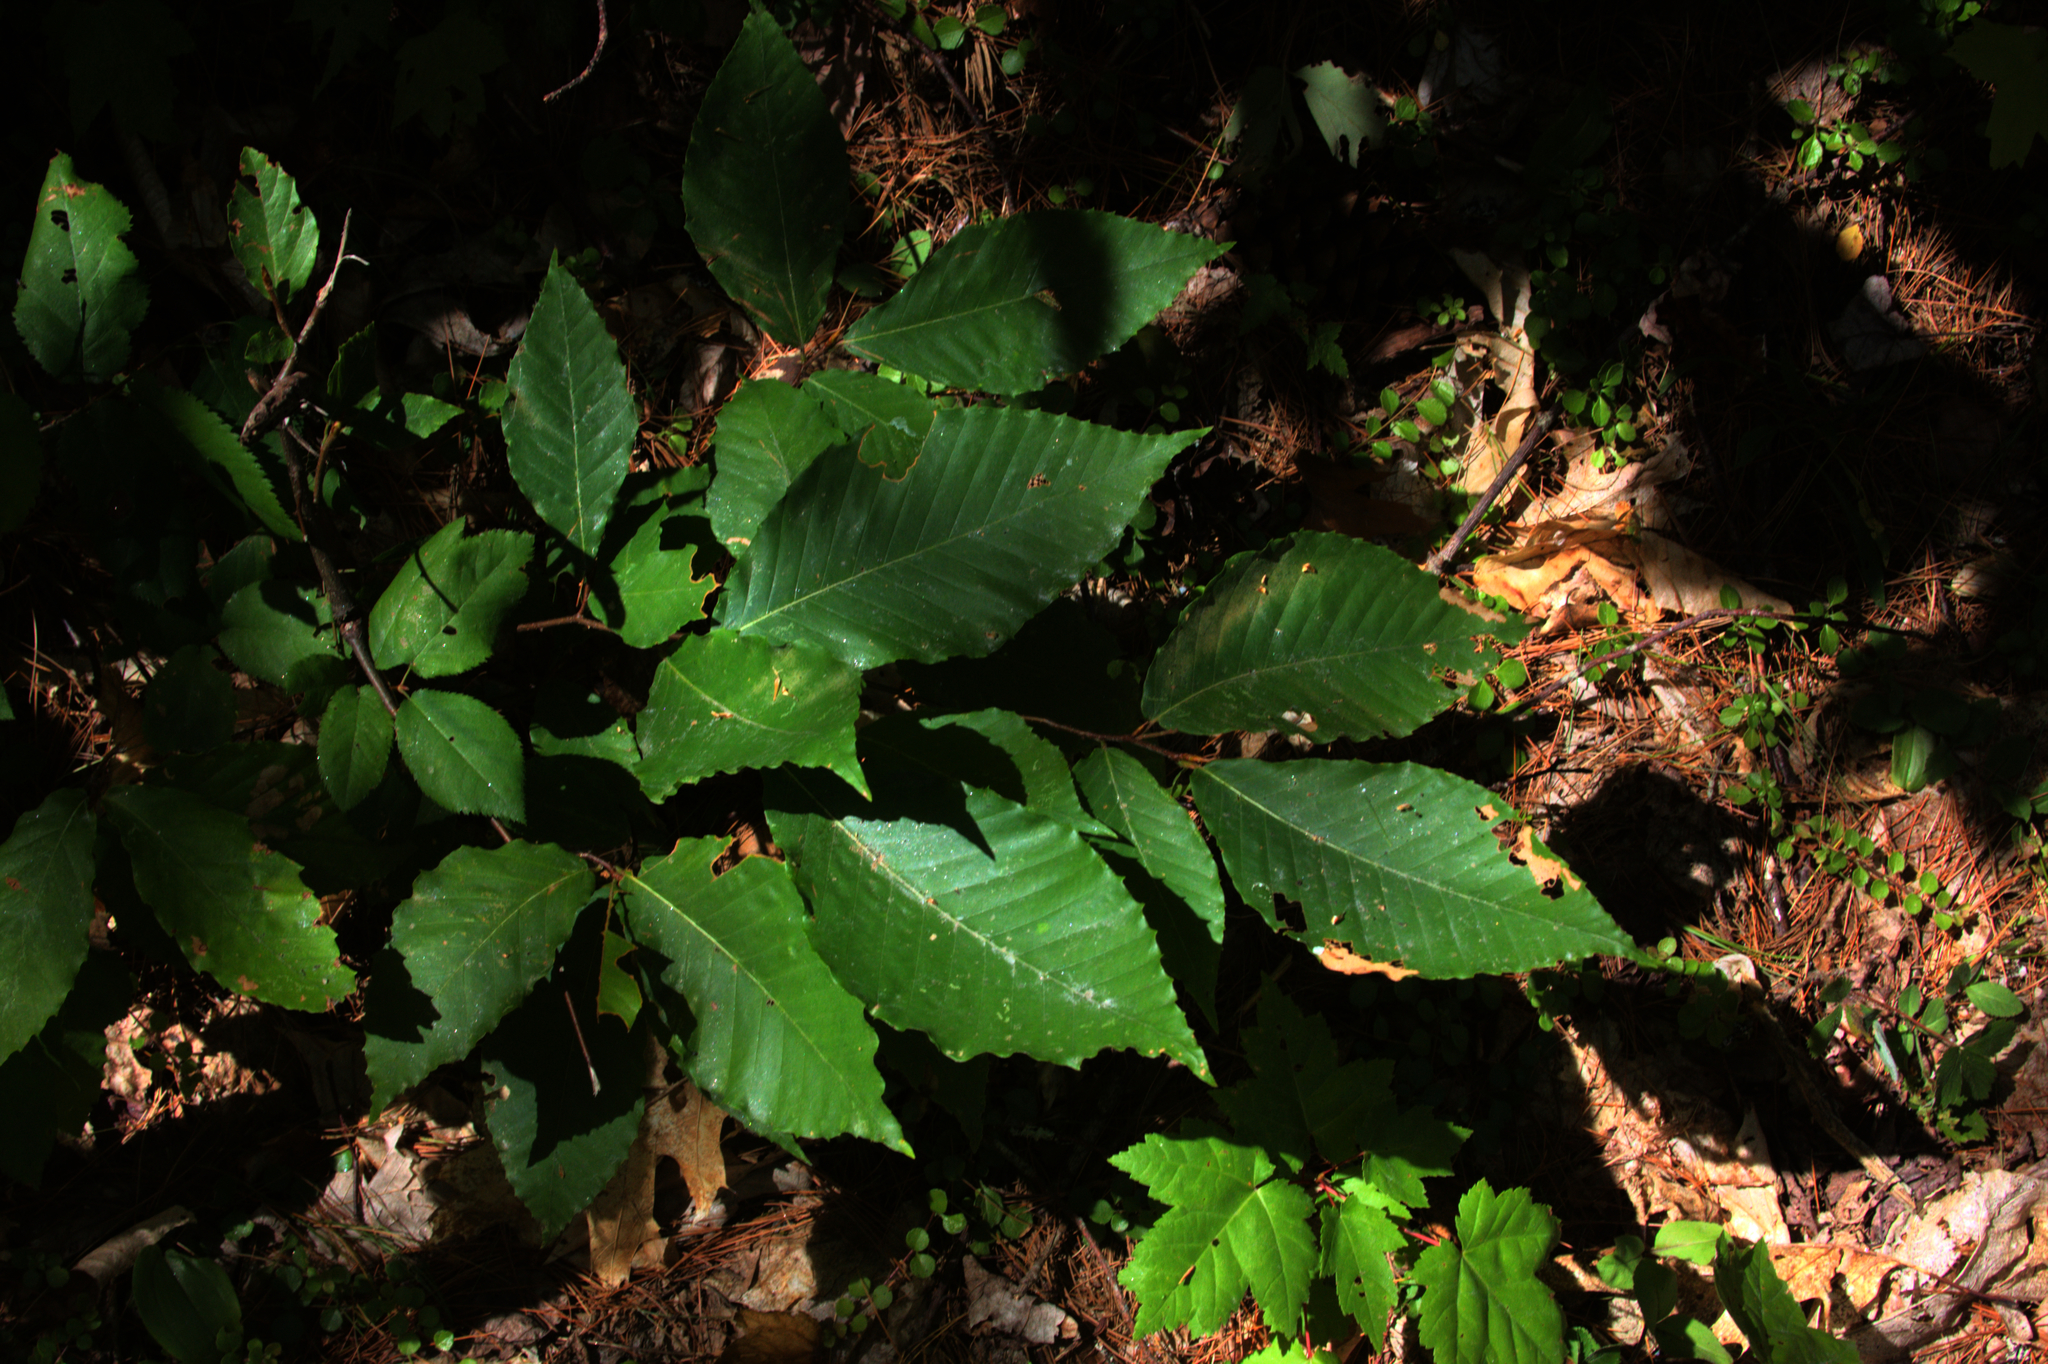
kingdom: Plantae
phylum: Tracheophyta
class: Magnoliopsida
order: Fagales
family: Fagaceae
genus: Fagus
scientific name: Fagus grandifolia
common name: American beech
